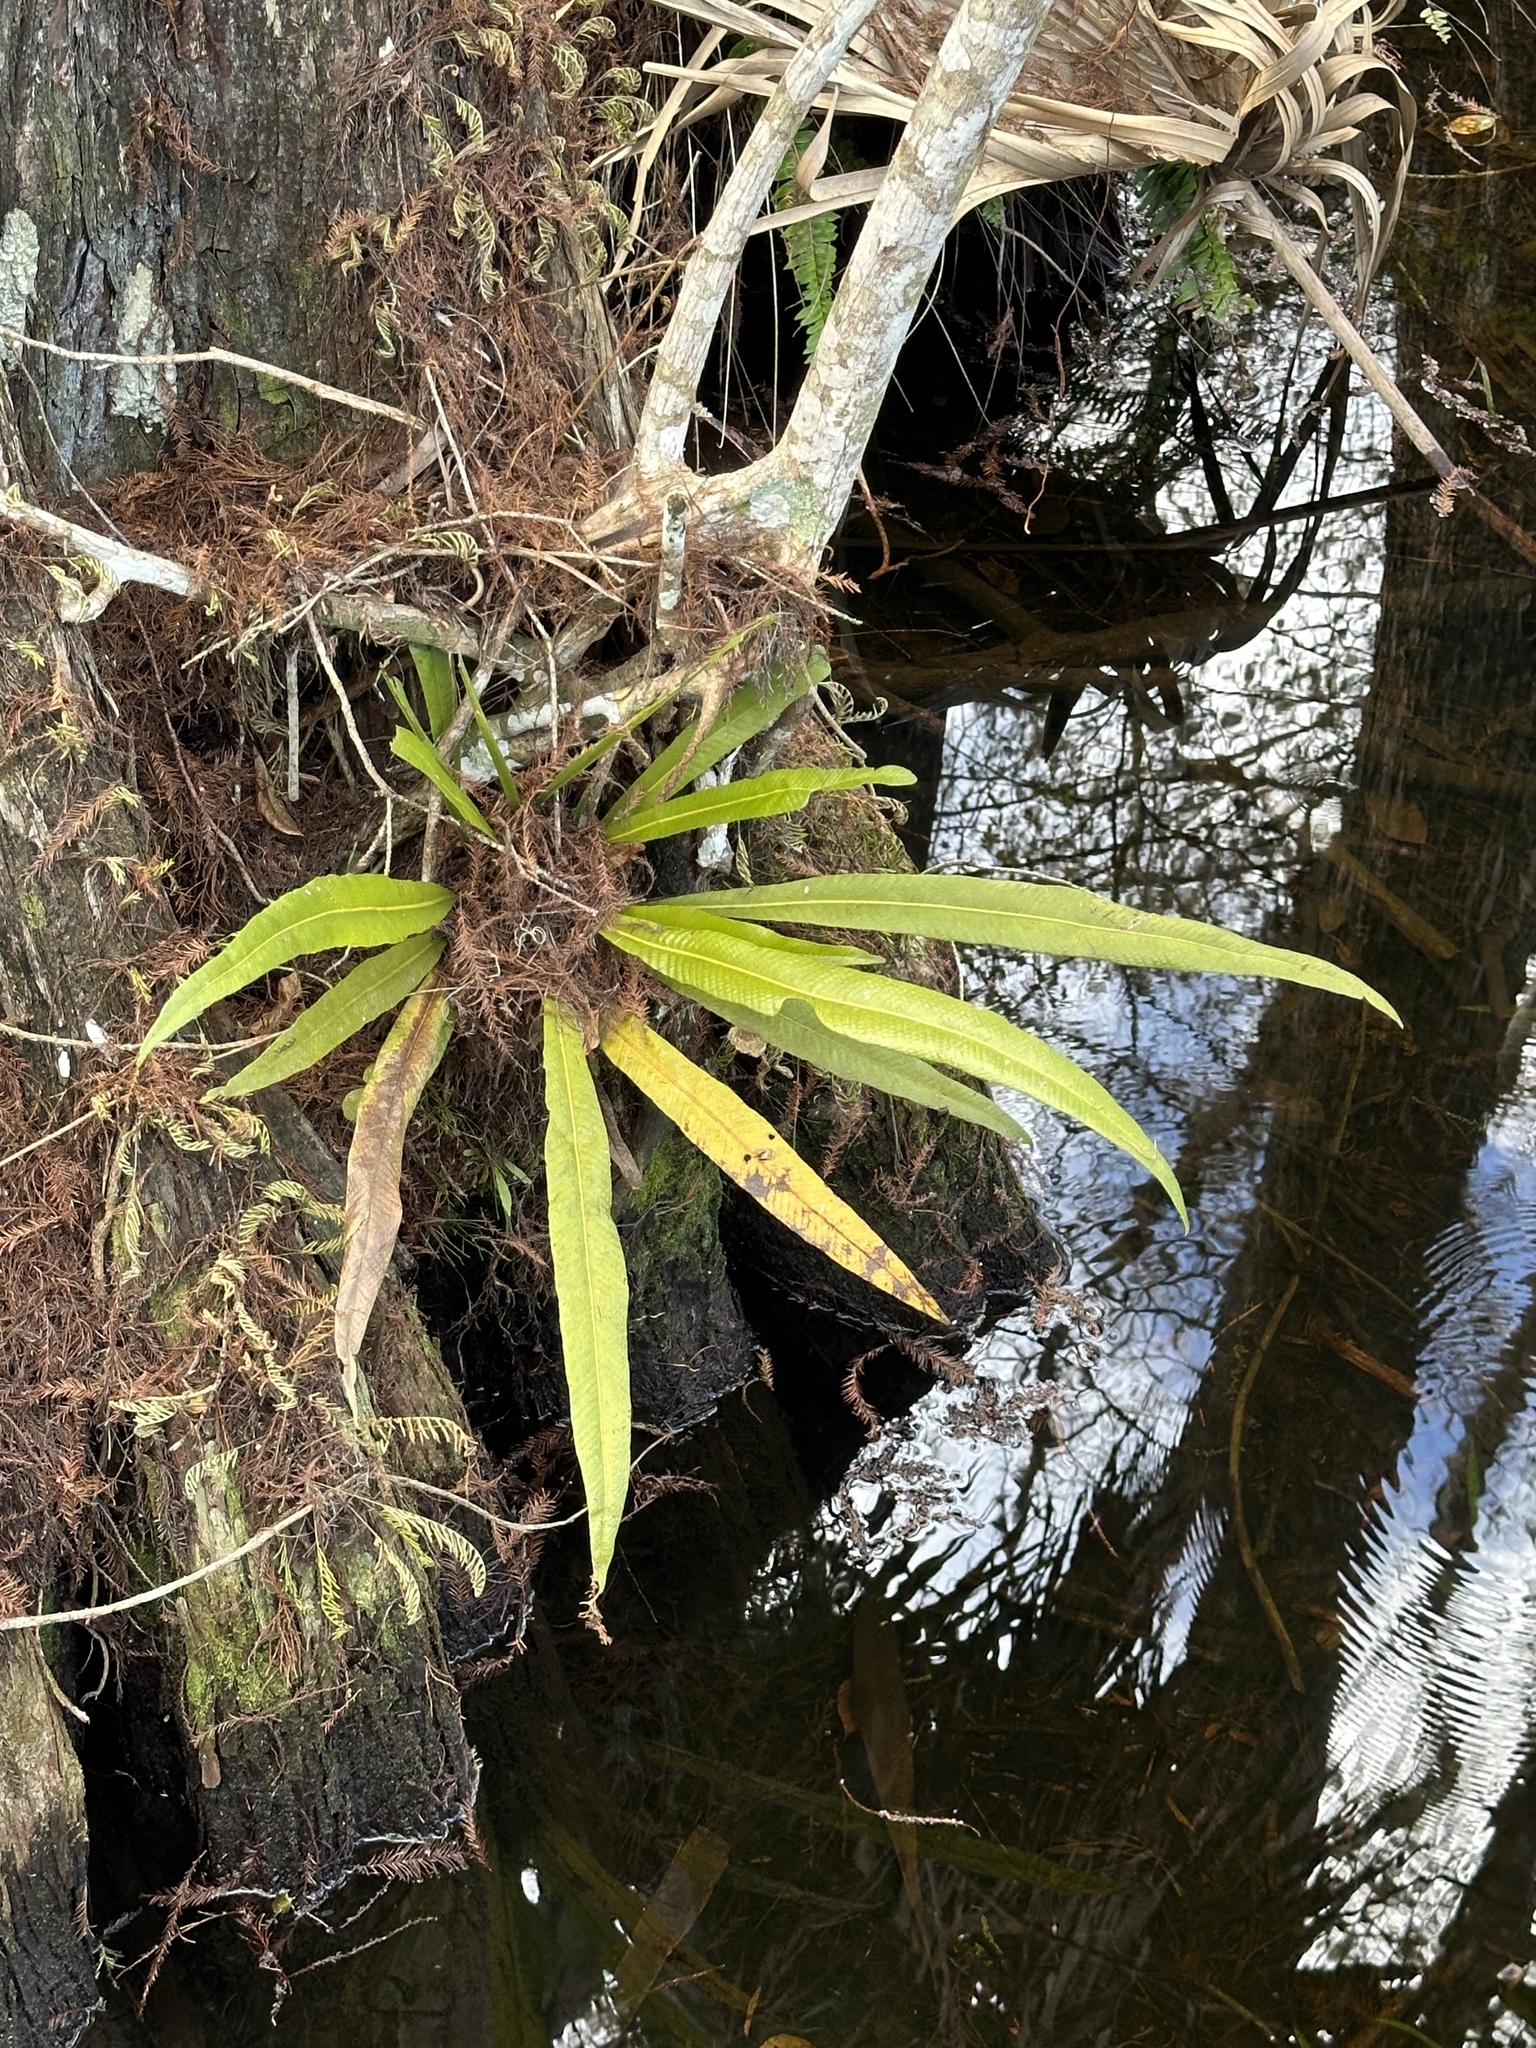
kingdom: Plantae
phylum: Tracheophyta
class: Polypodiopsida
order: Polypodiales
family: Polypodiaceae
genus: Campyloneurum
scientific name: Campyloneurum phyllitidis
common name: Cow-tongue fern
